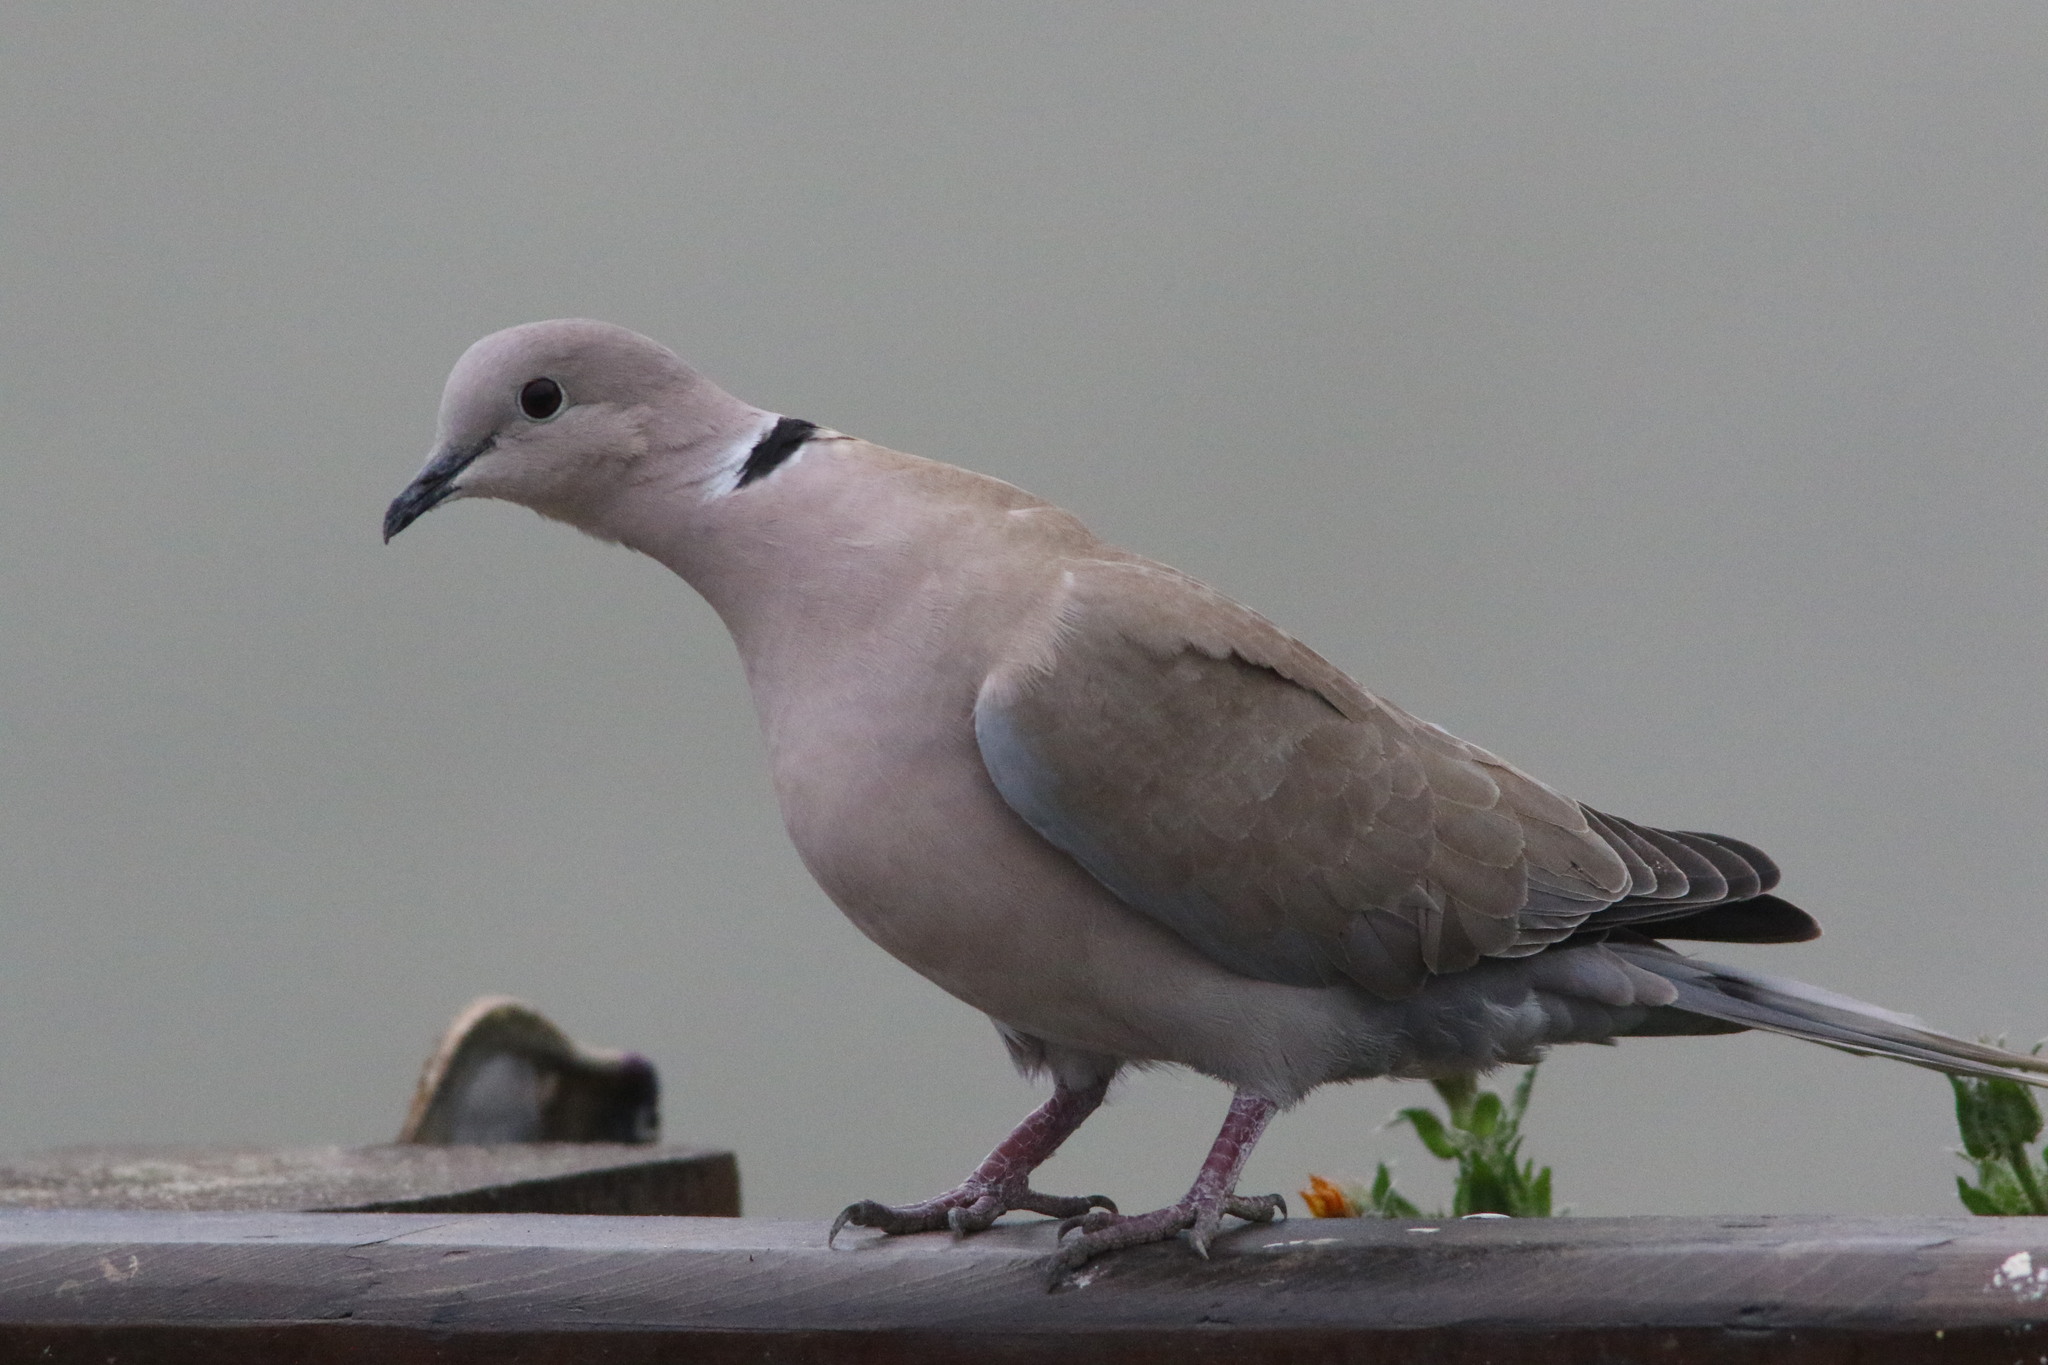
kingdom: Animalia
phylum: Chordata
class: Aves
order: Columbiformes
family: Columbidae
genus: Streptopelia
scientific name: Streptopelia decaocto
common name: Eurasian collared dove
